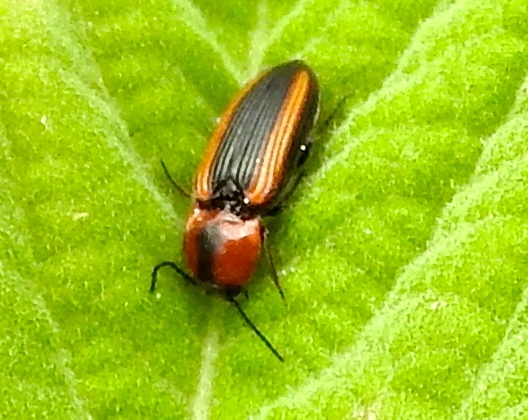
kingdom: Animalia
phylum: Arthropoda
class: Insecta
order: Coleoptera
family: Elateridae
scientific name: Elateridae
